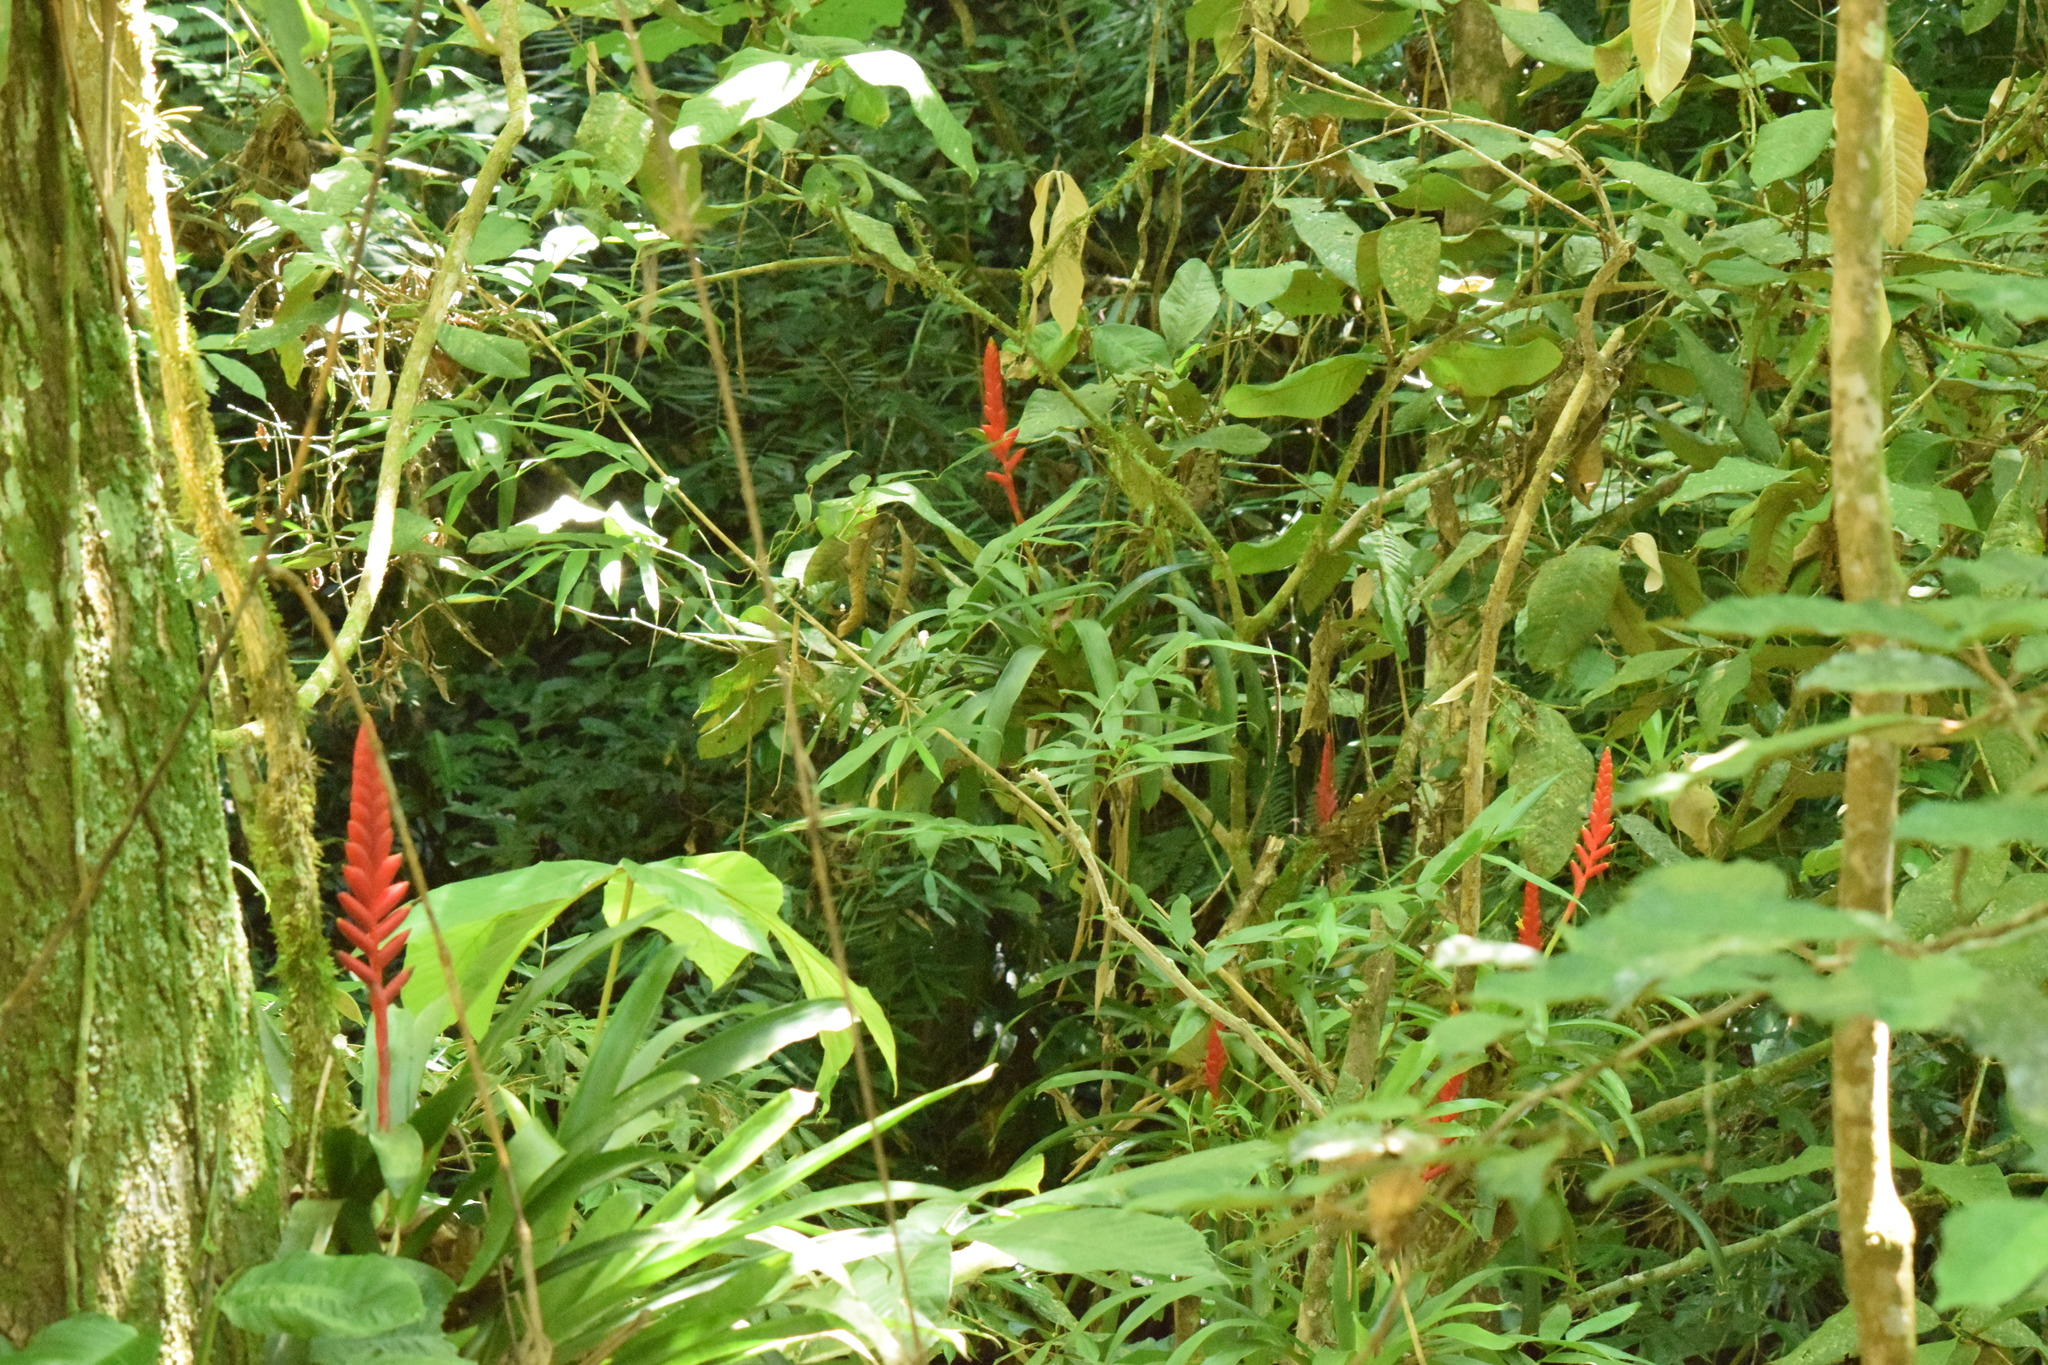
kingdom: Plantae
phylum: Tracheophyta
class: Liliopsida
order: Poales
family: Bromeliaceae
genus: Vriesea
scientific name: Vriesea ensiformis
